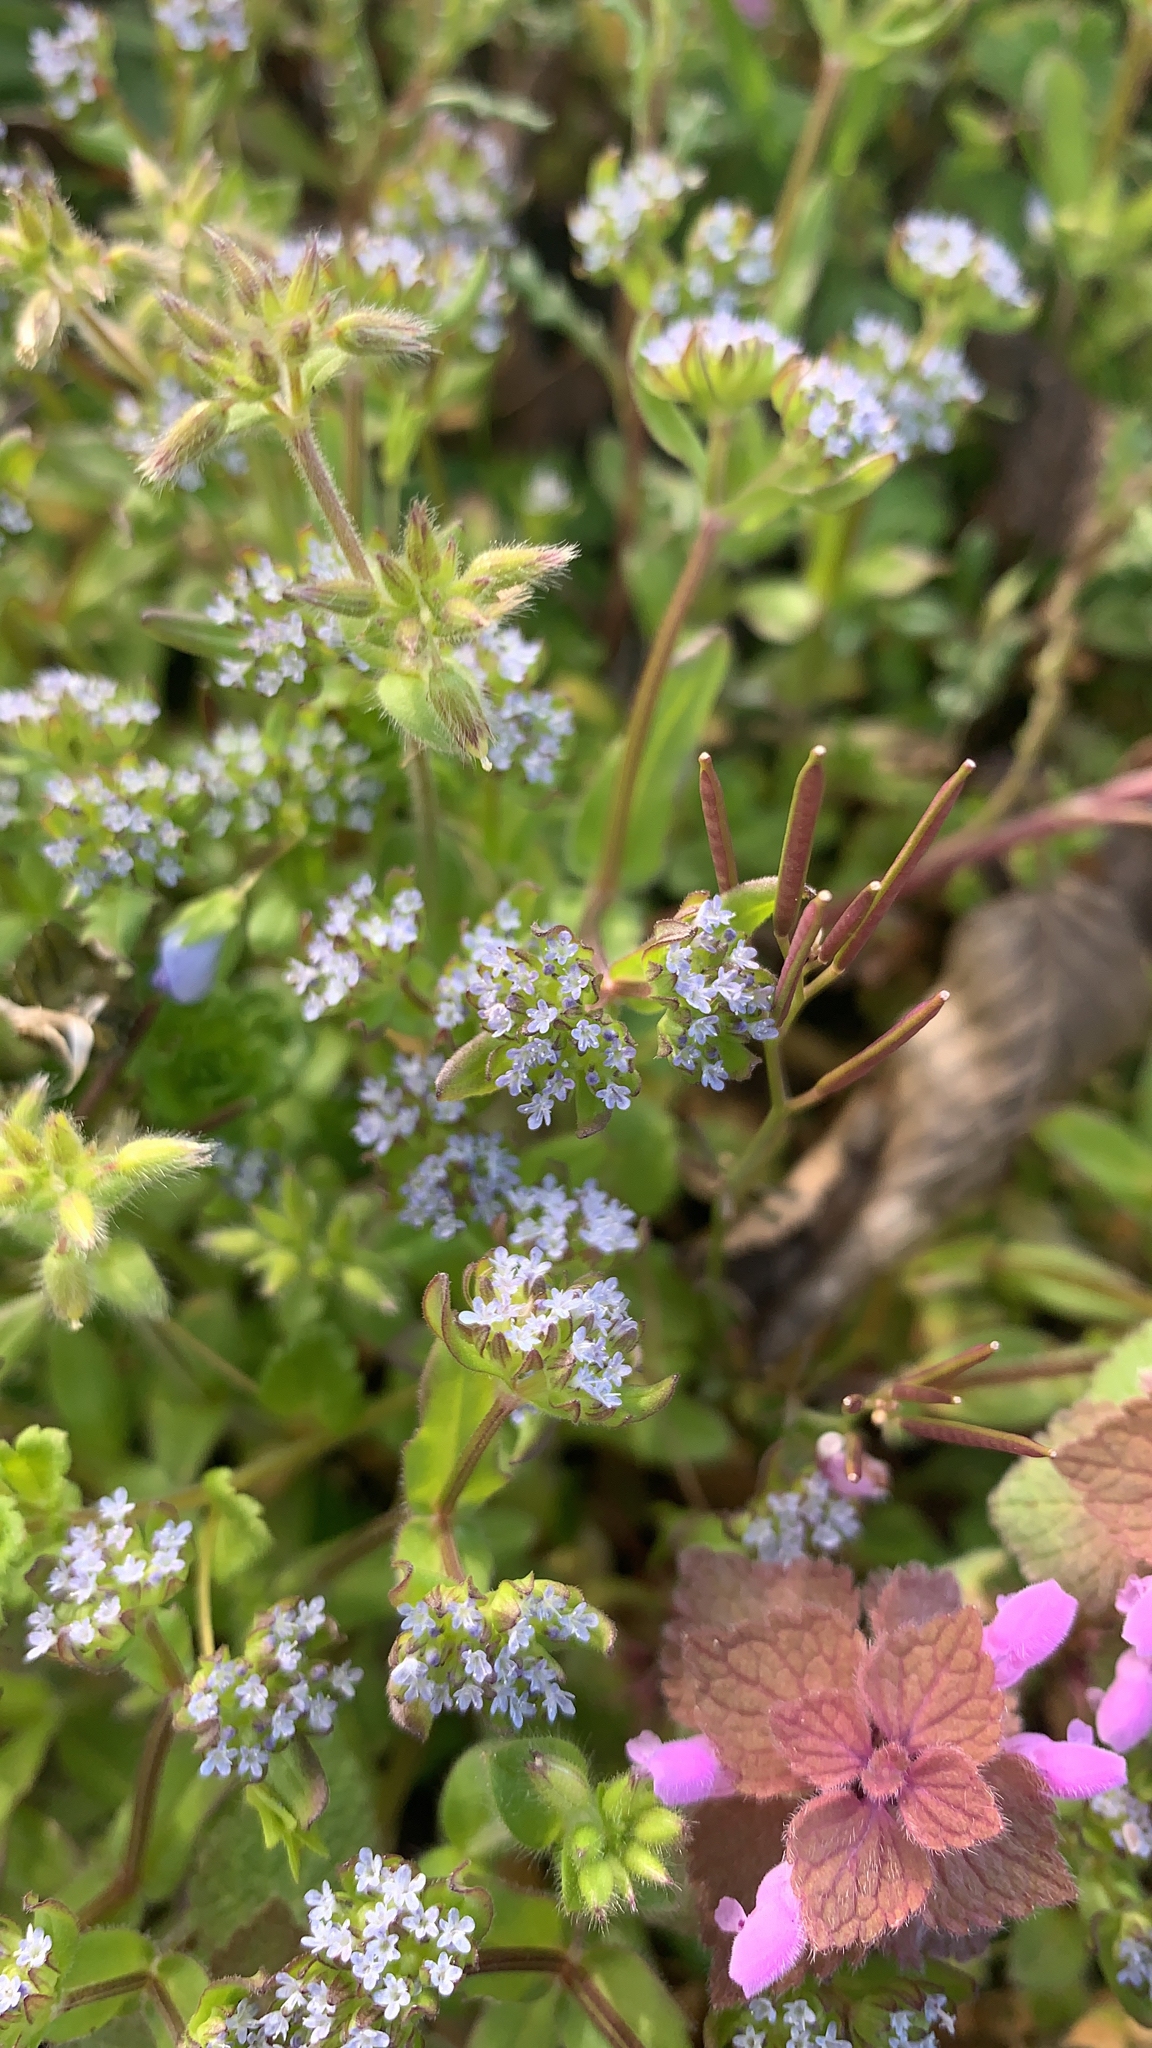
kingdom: Plantae
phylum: Tracheophyta
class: Magnoliopsida
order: Dipsacales
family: Caprifoliaceae
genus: Valerianella
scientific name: Valerianella locusta
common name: Common cornsalad
